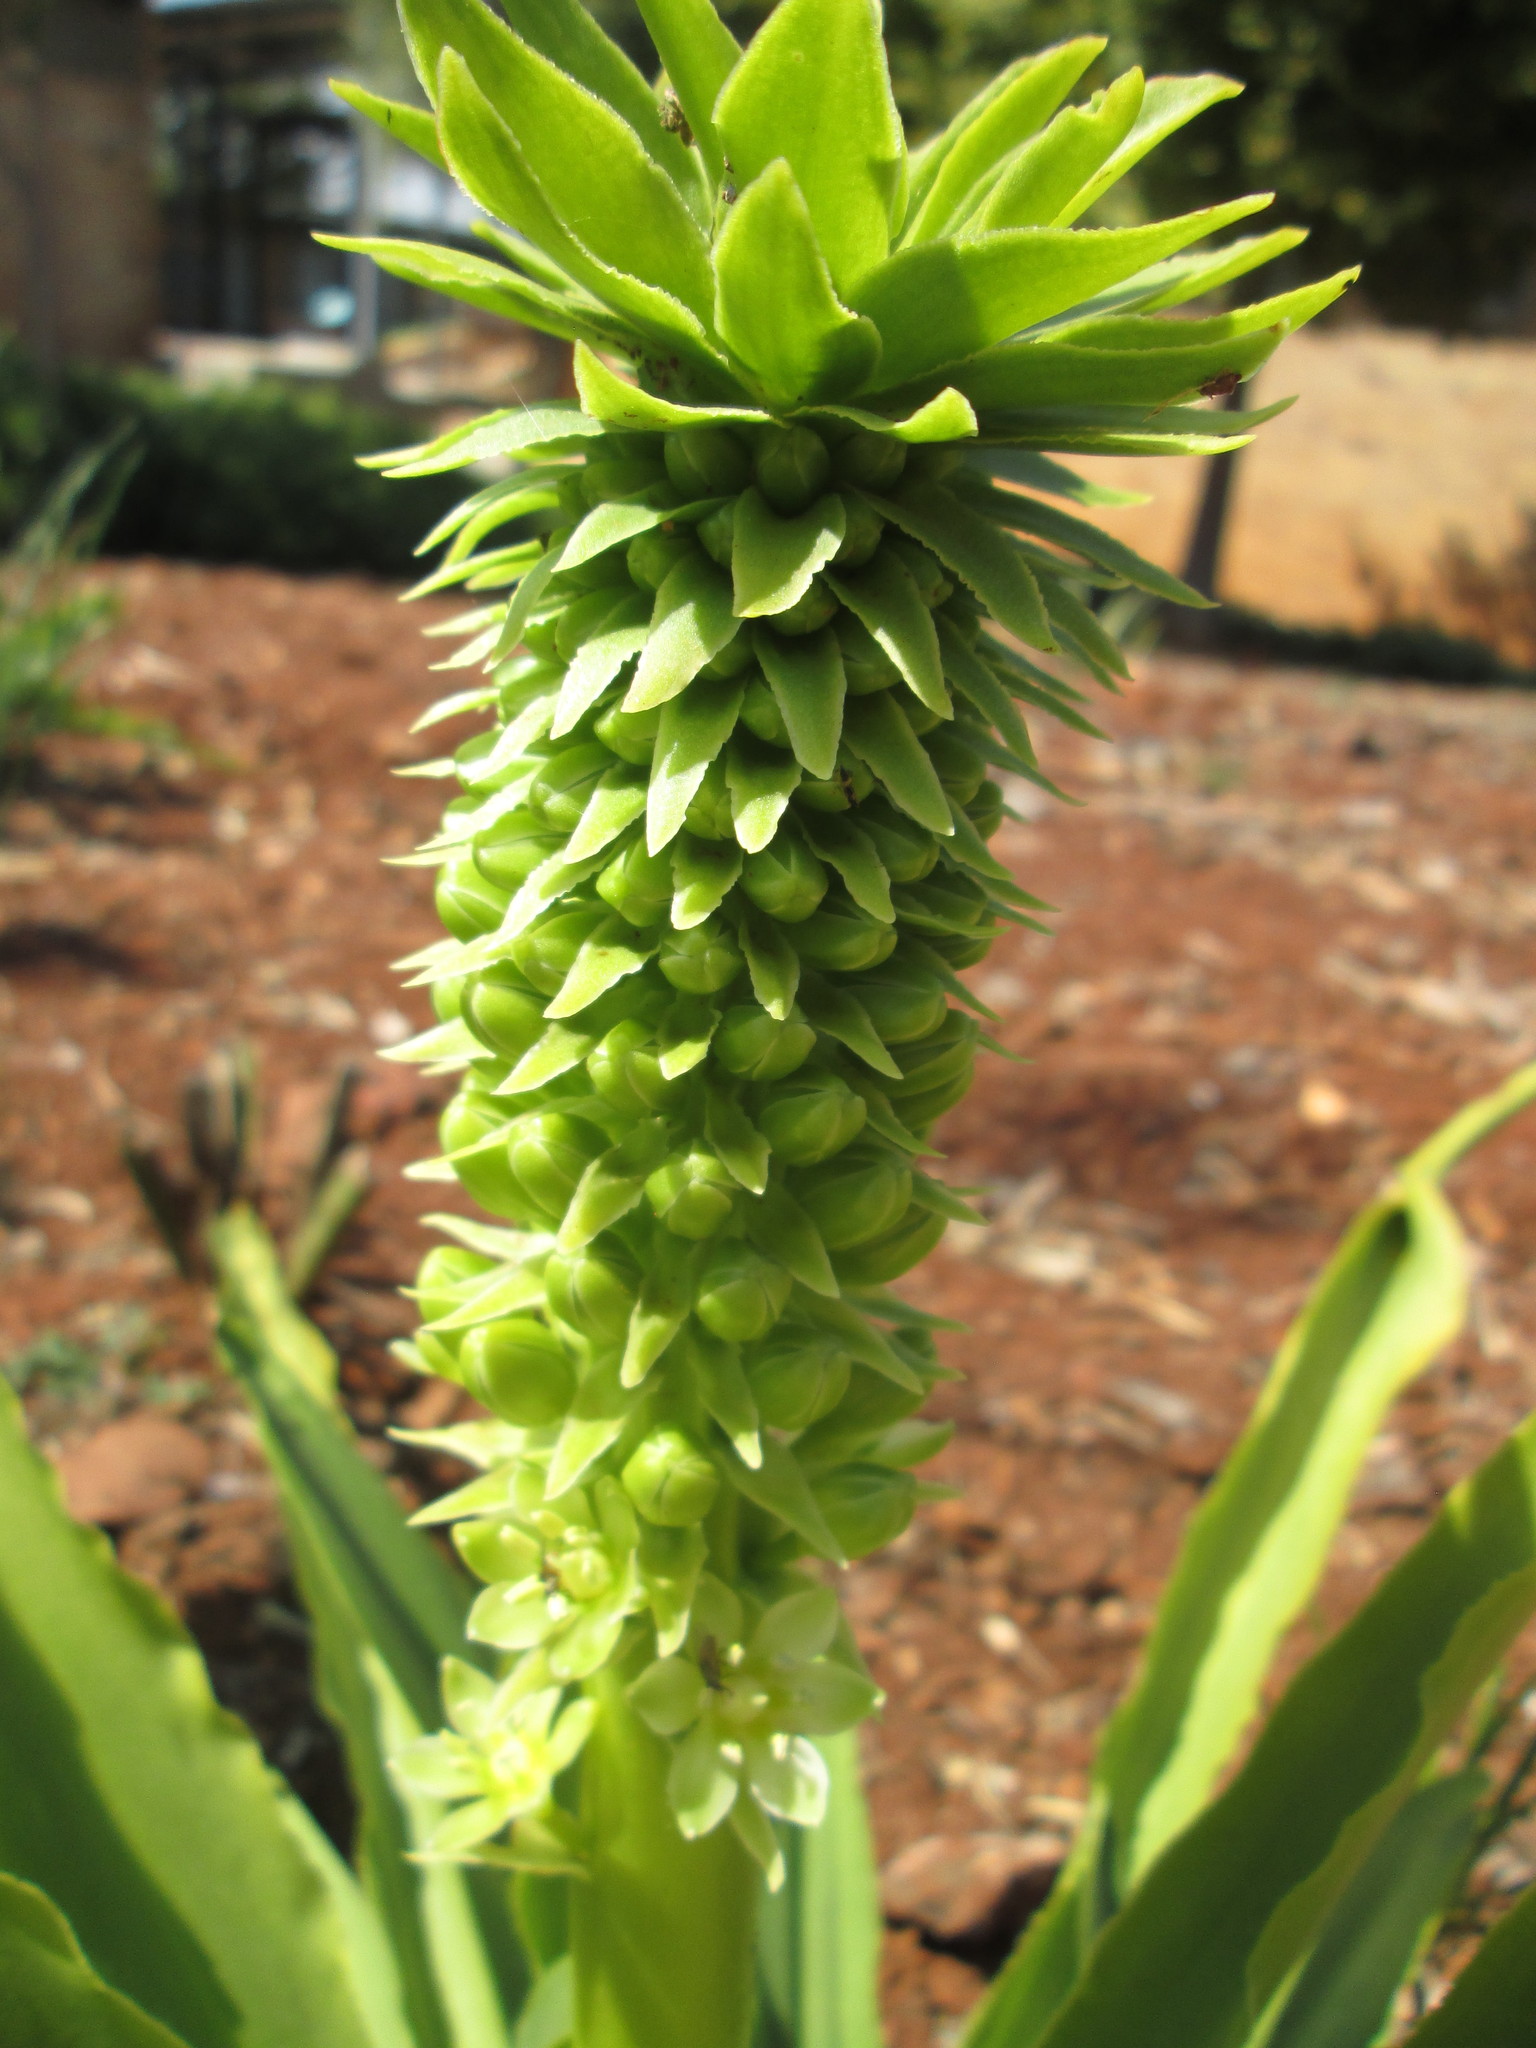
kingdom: Plantae
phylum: Tracheophyta
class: Liliopsida
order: Asparagales
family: Asparagaceae
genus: Eucomis
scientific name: Eucomis autumnalis
